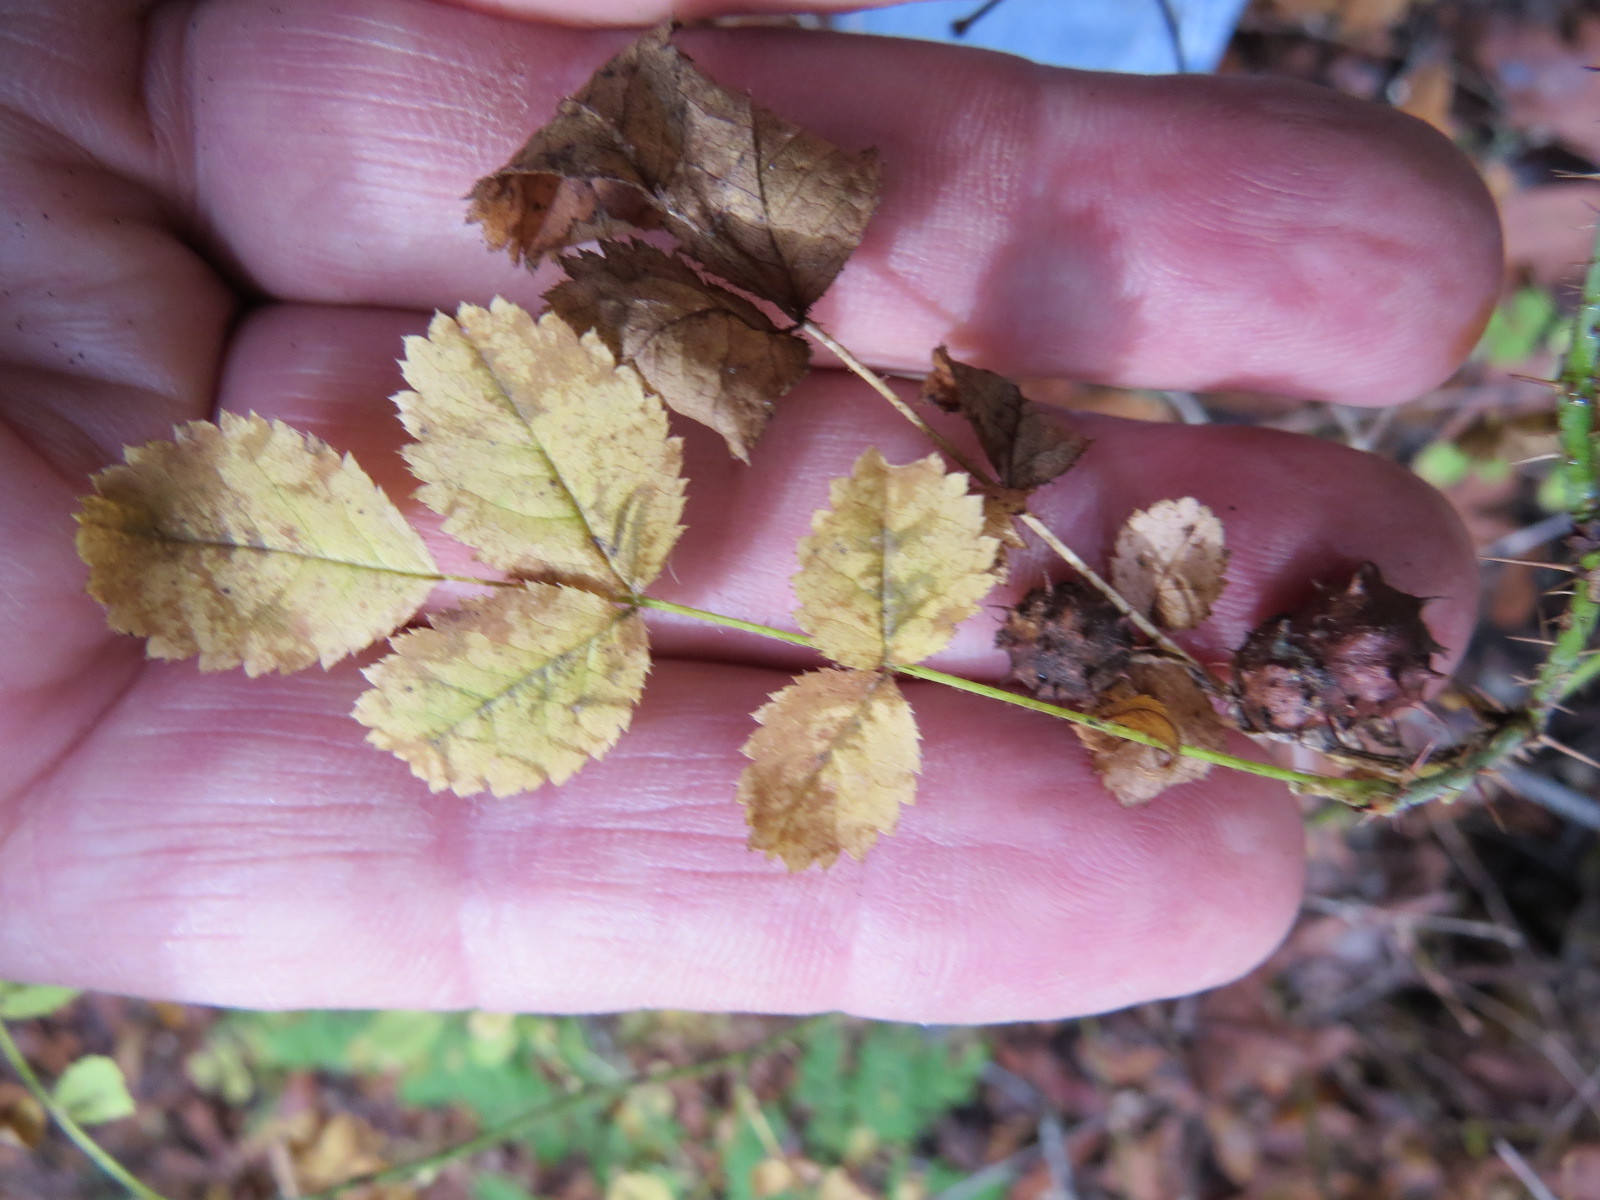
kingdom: Animalia
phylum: Arthropoda
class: Insecta
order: Hymenoptera
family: Cynipidae
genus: Diplolepis
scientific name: Diplolepis polita
